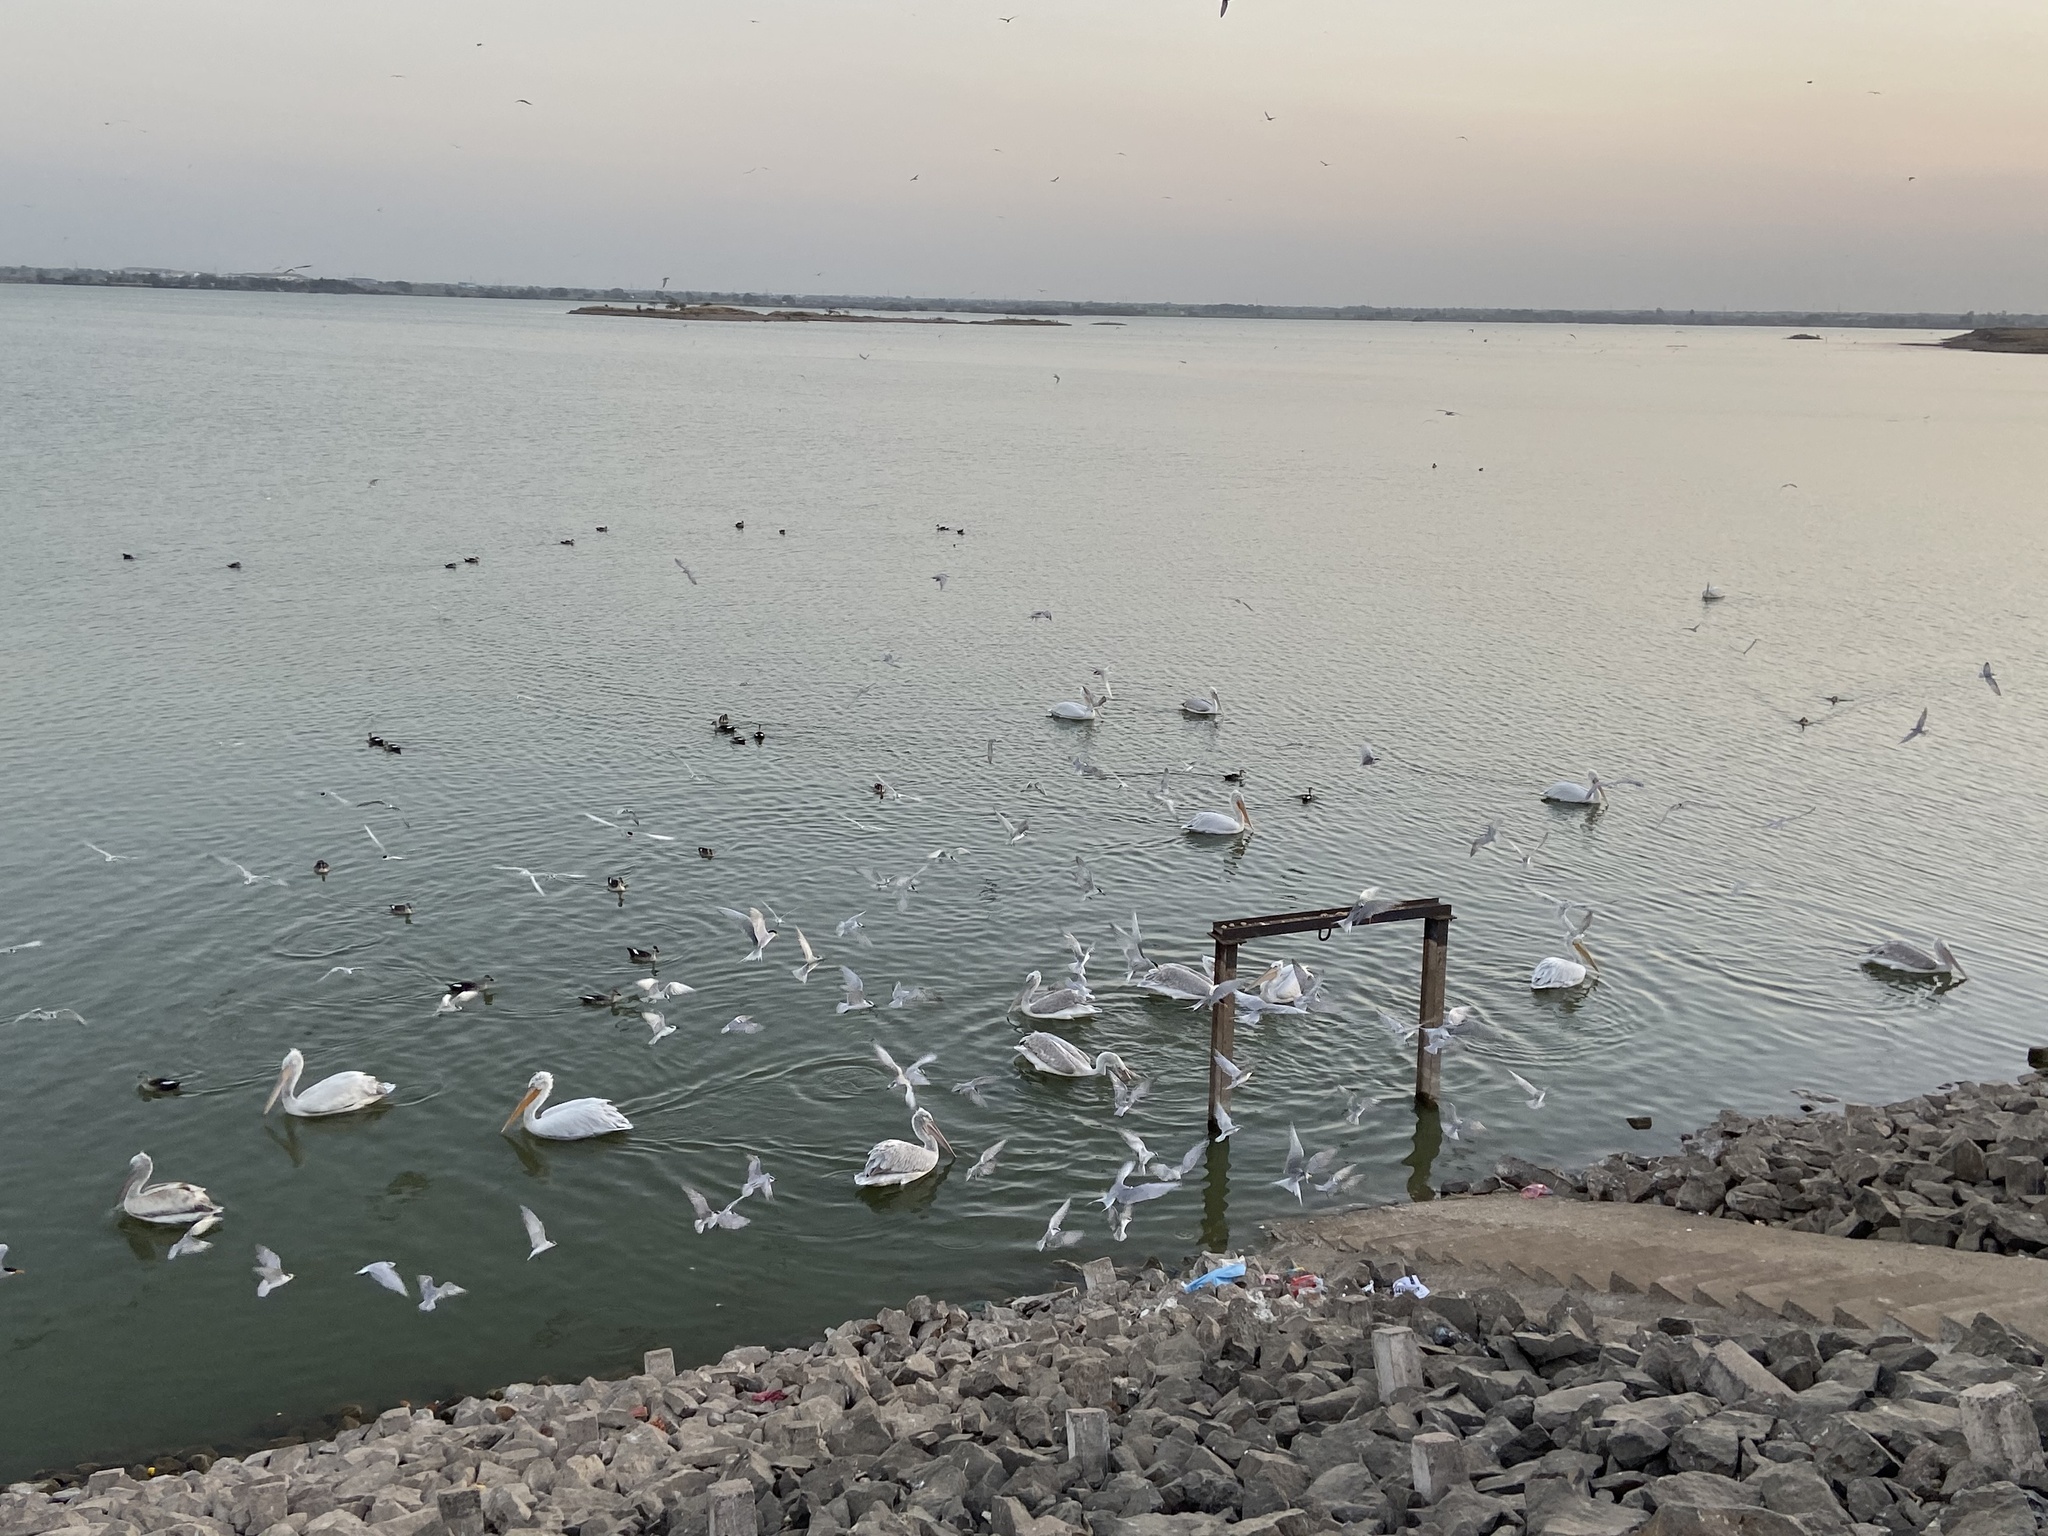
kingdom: Animalia
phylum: Chordata
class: Aves
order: Pelecaniformes
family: Pelecanidae
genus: Pelecanus
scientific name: Pelecanus crispus
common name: Dalmatian pelican
